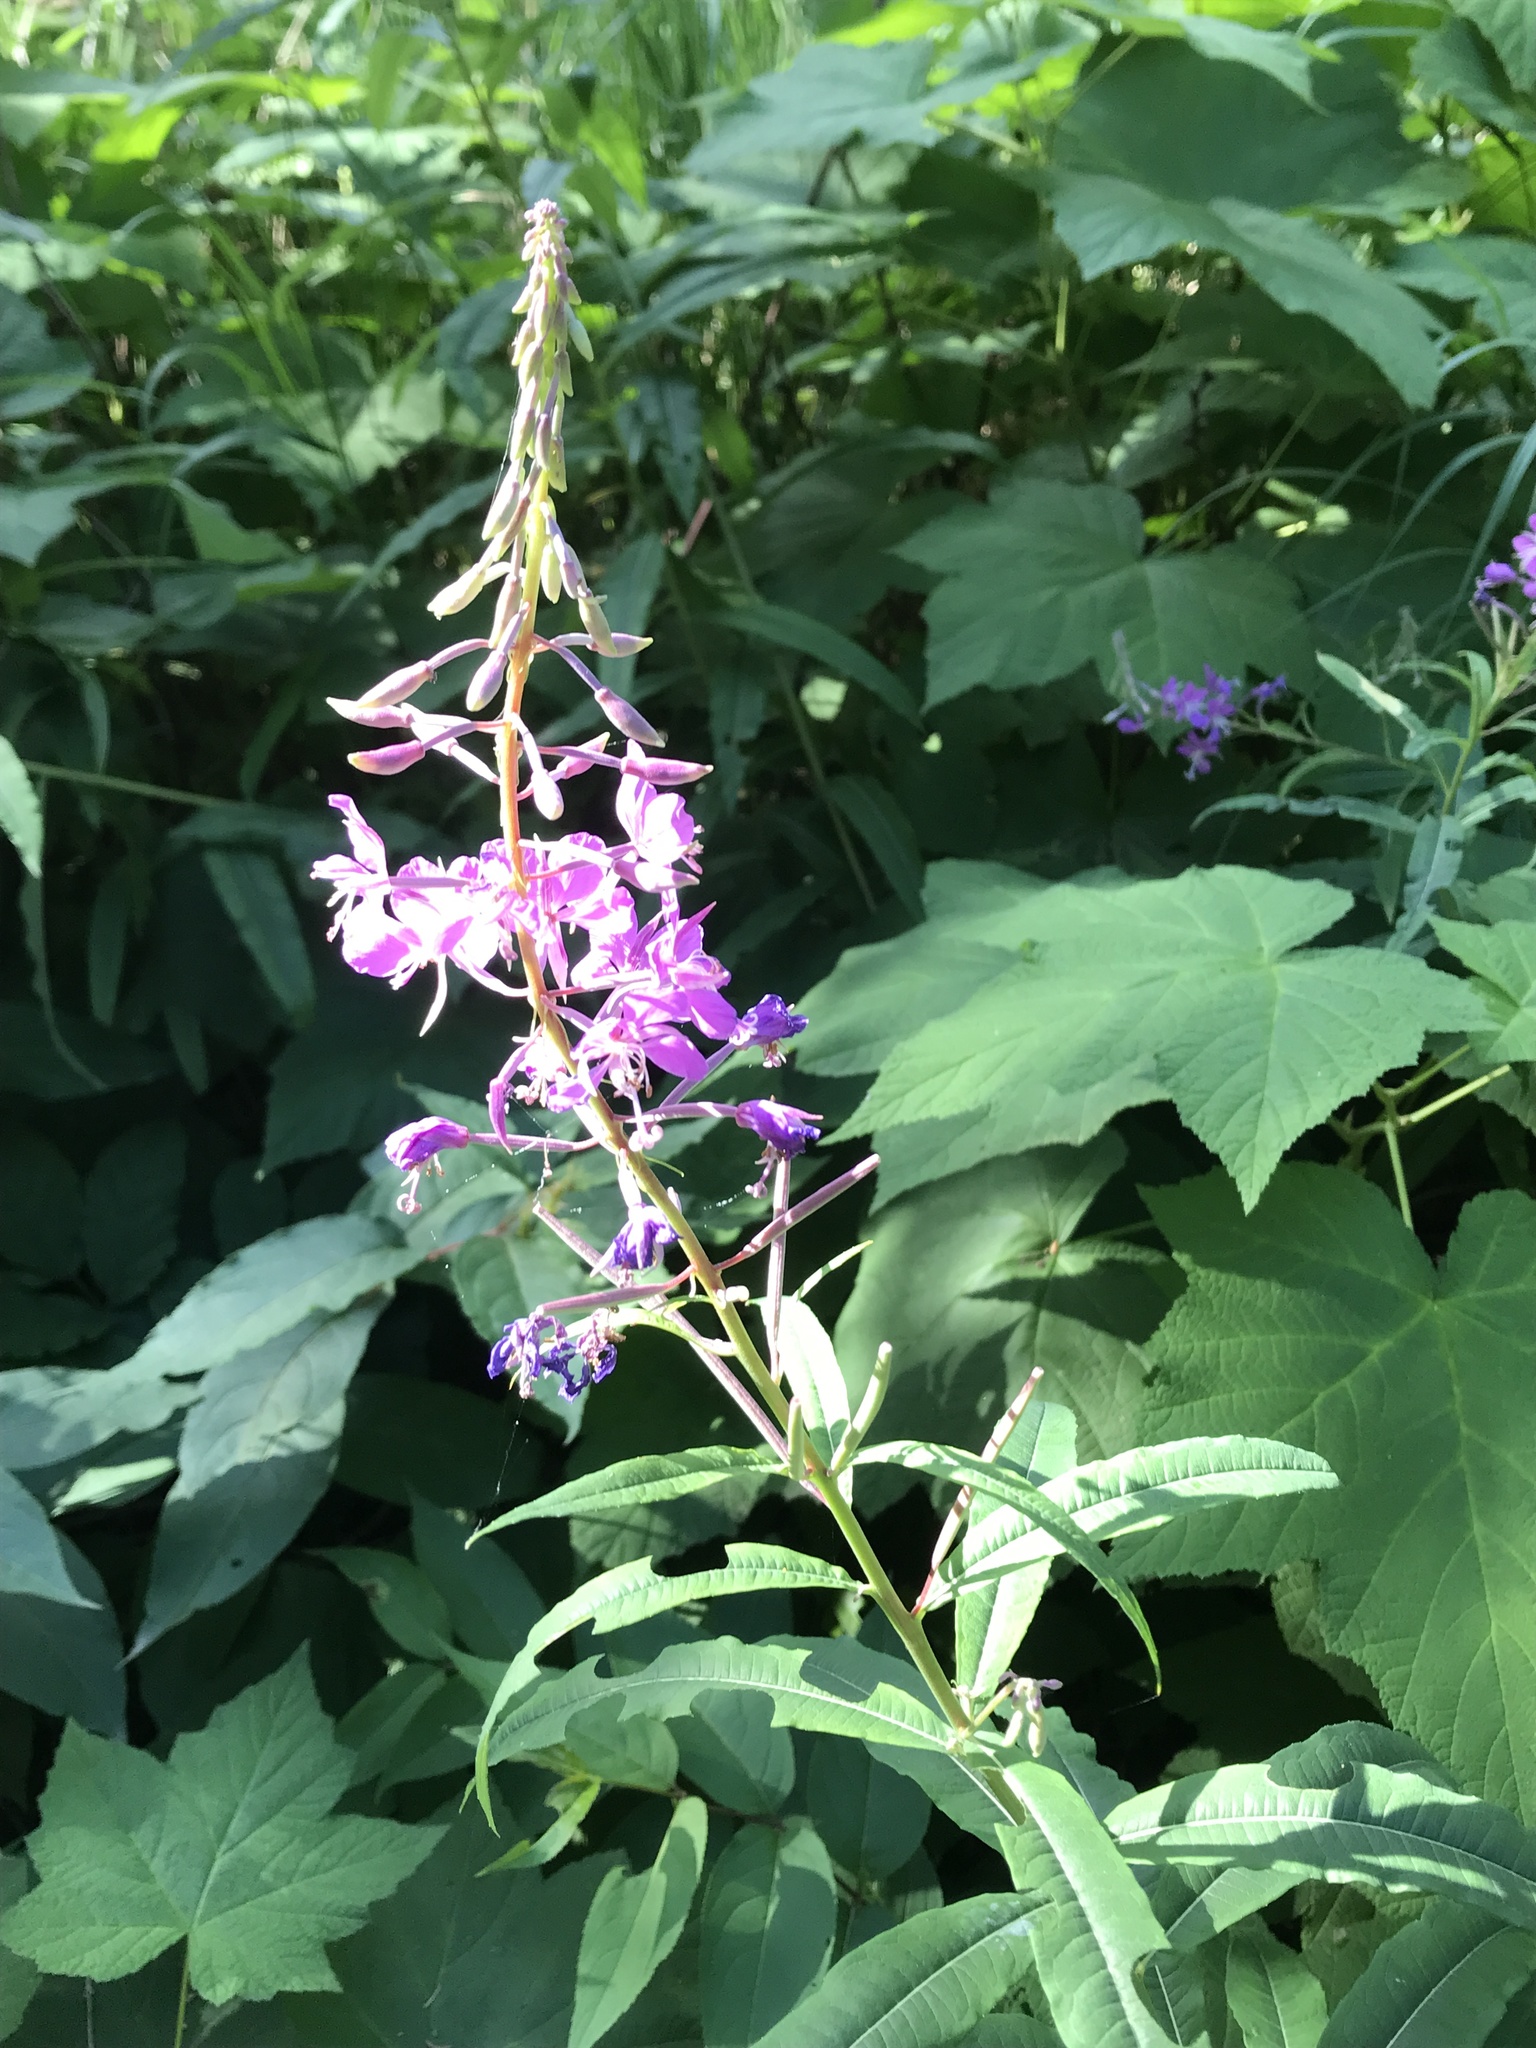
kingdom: Plantae
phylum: Tracheophyta
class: Magnoliopsida
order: Myrtales
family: Onagraceae
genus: Chamaenerion
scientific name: Chamaenerion angustifolium
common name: Fireweed
